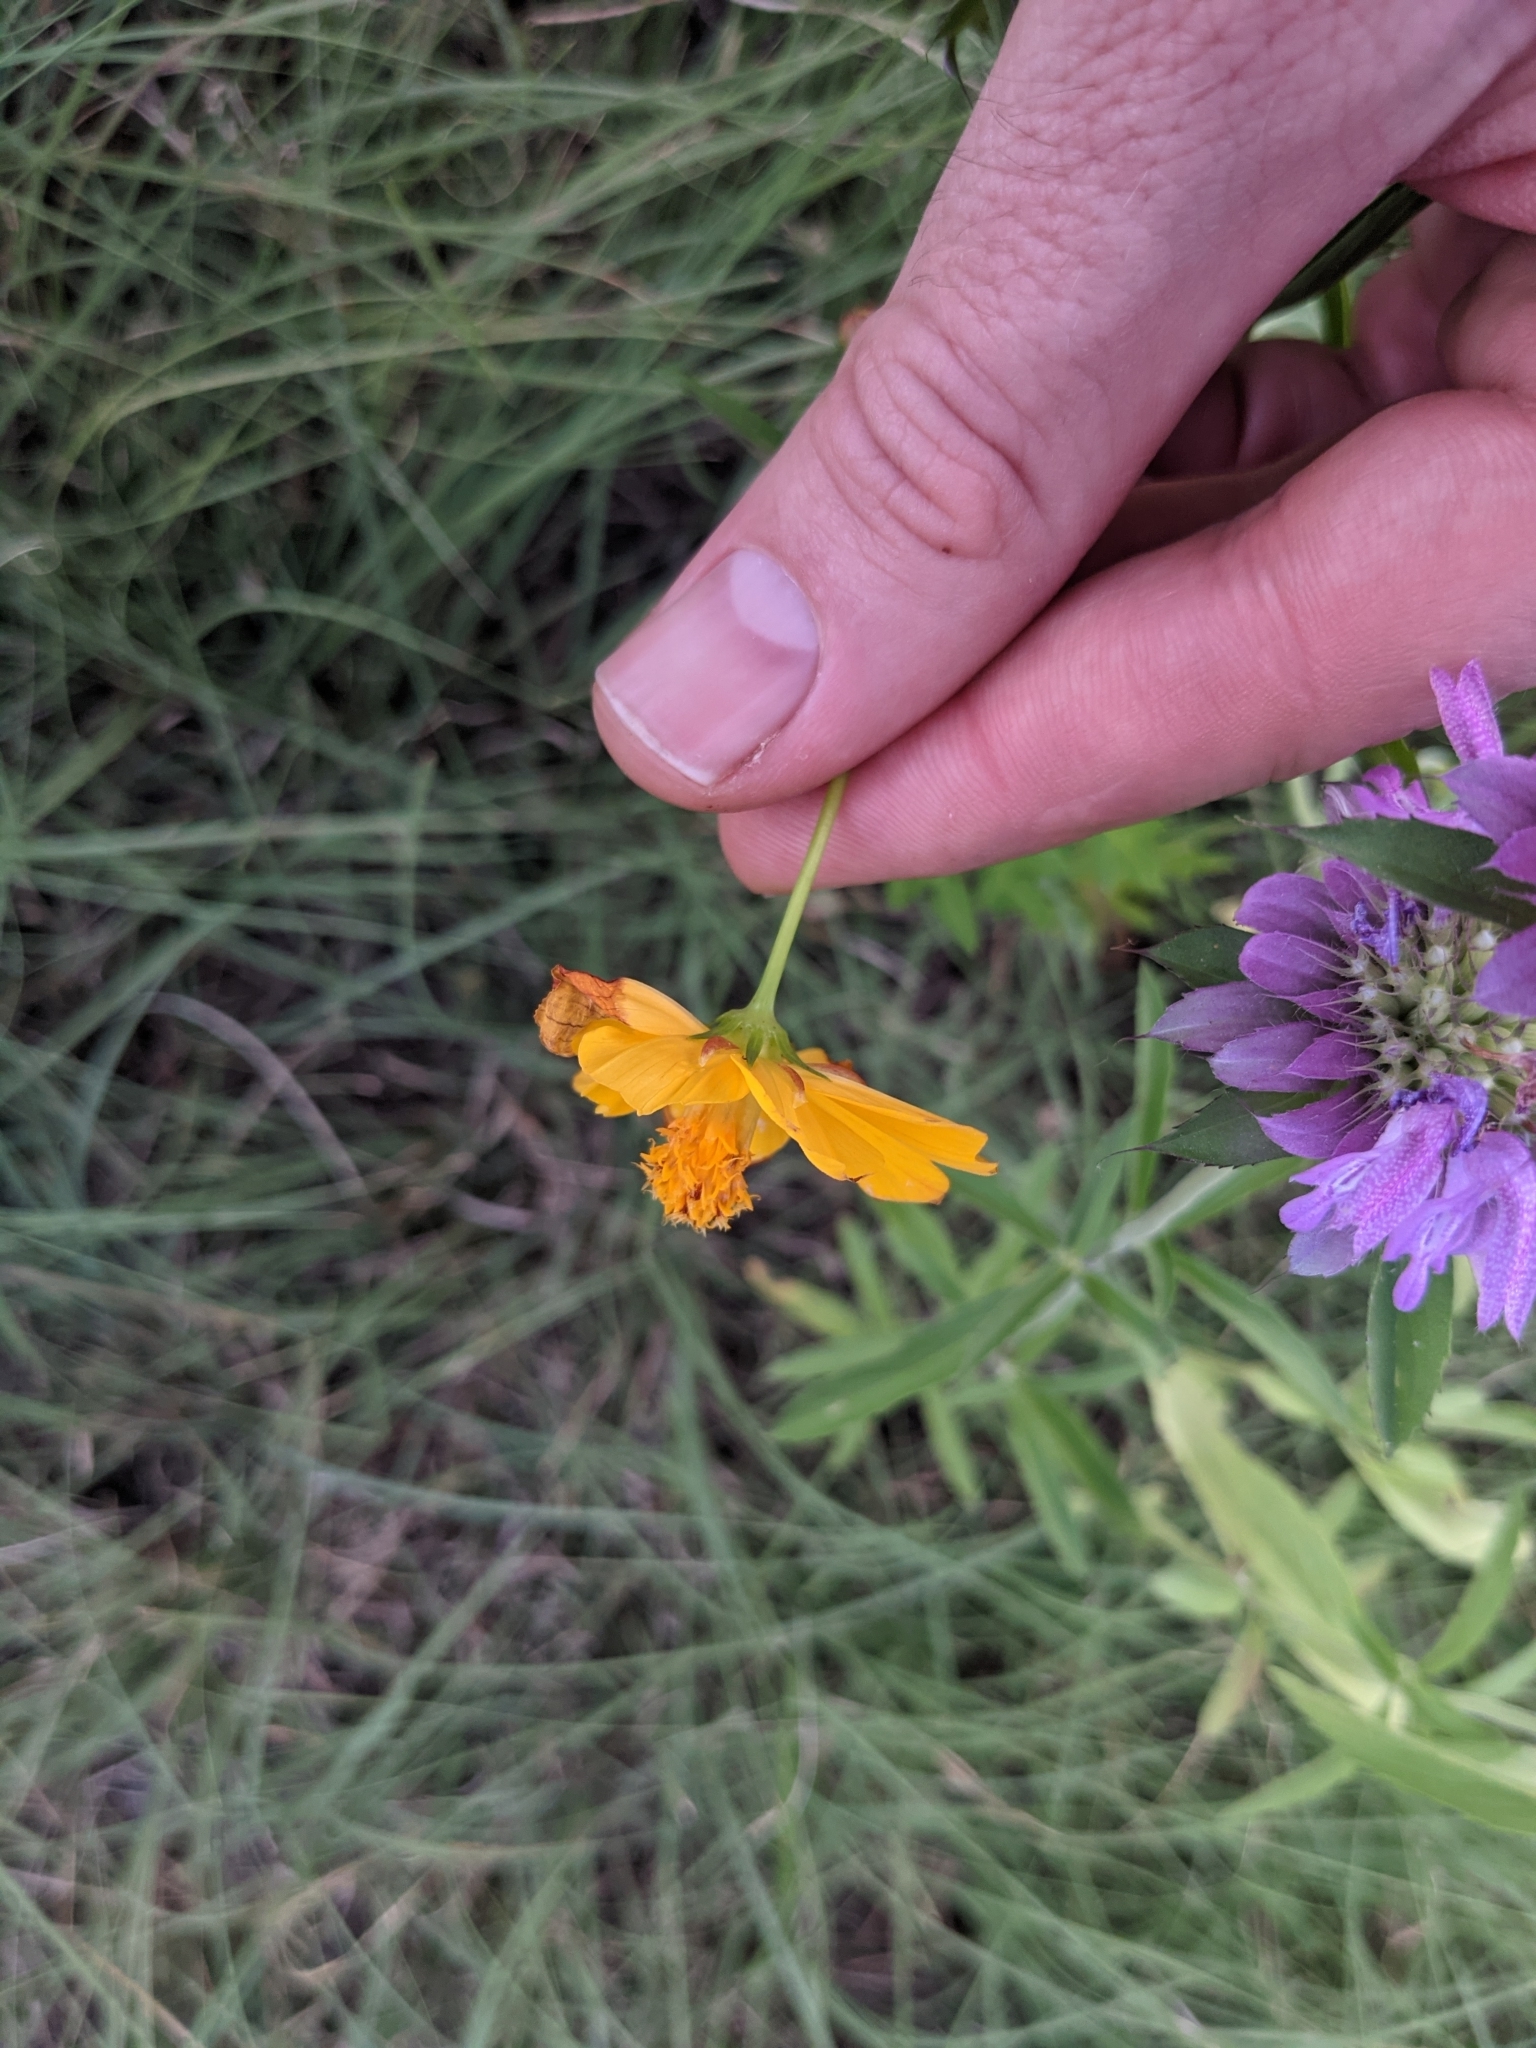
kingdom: Plantae
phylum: Tracheophyta
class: Magnoliopsida
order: Asterales
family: Asteraceae
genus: Cosmos
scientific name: Cosmos sulphureus
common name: Sulphur cosmos
